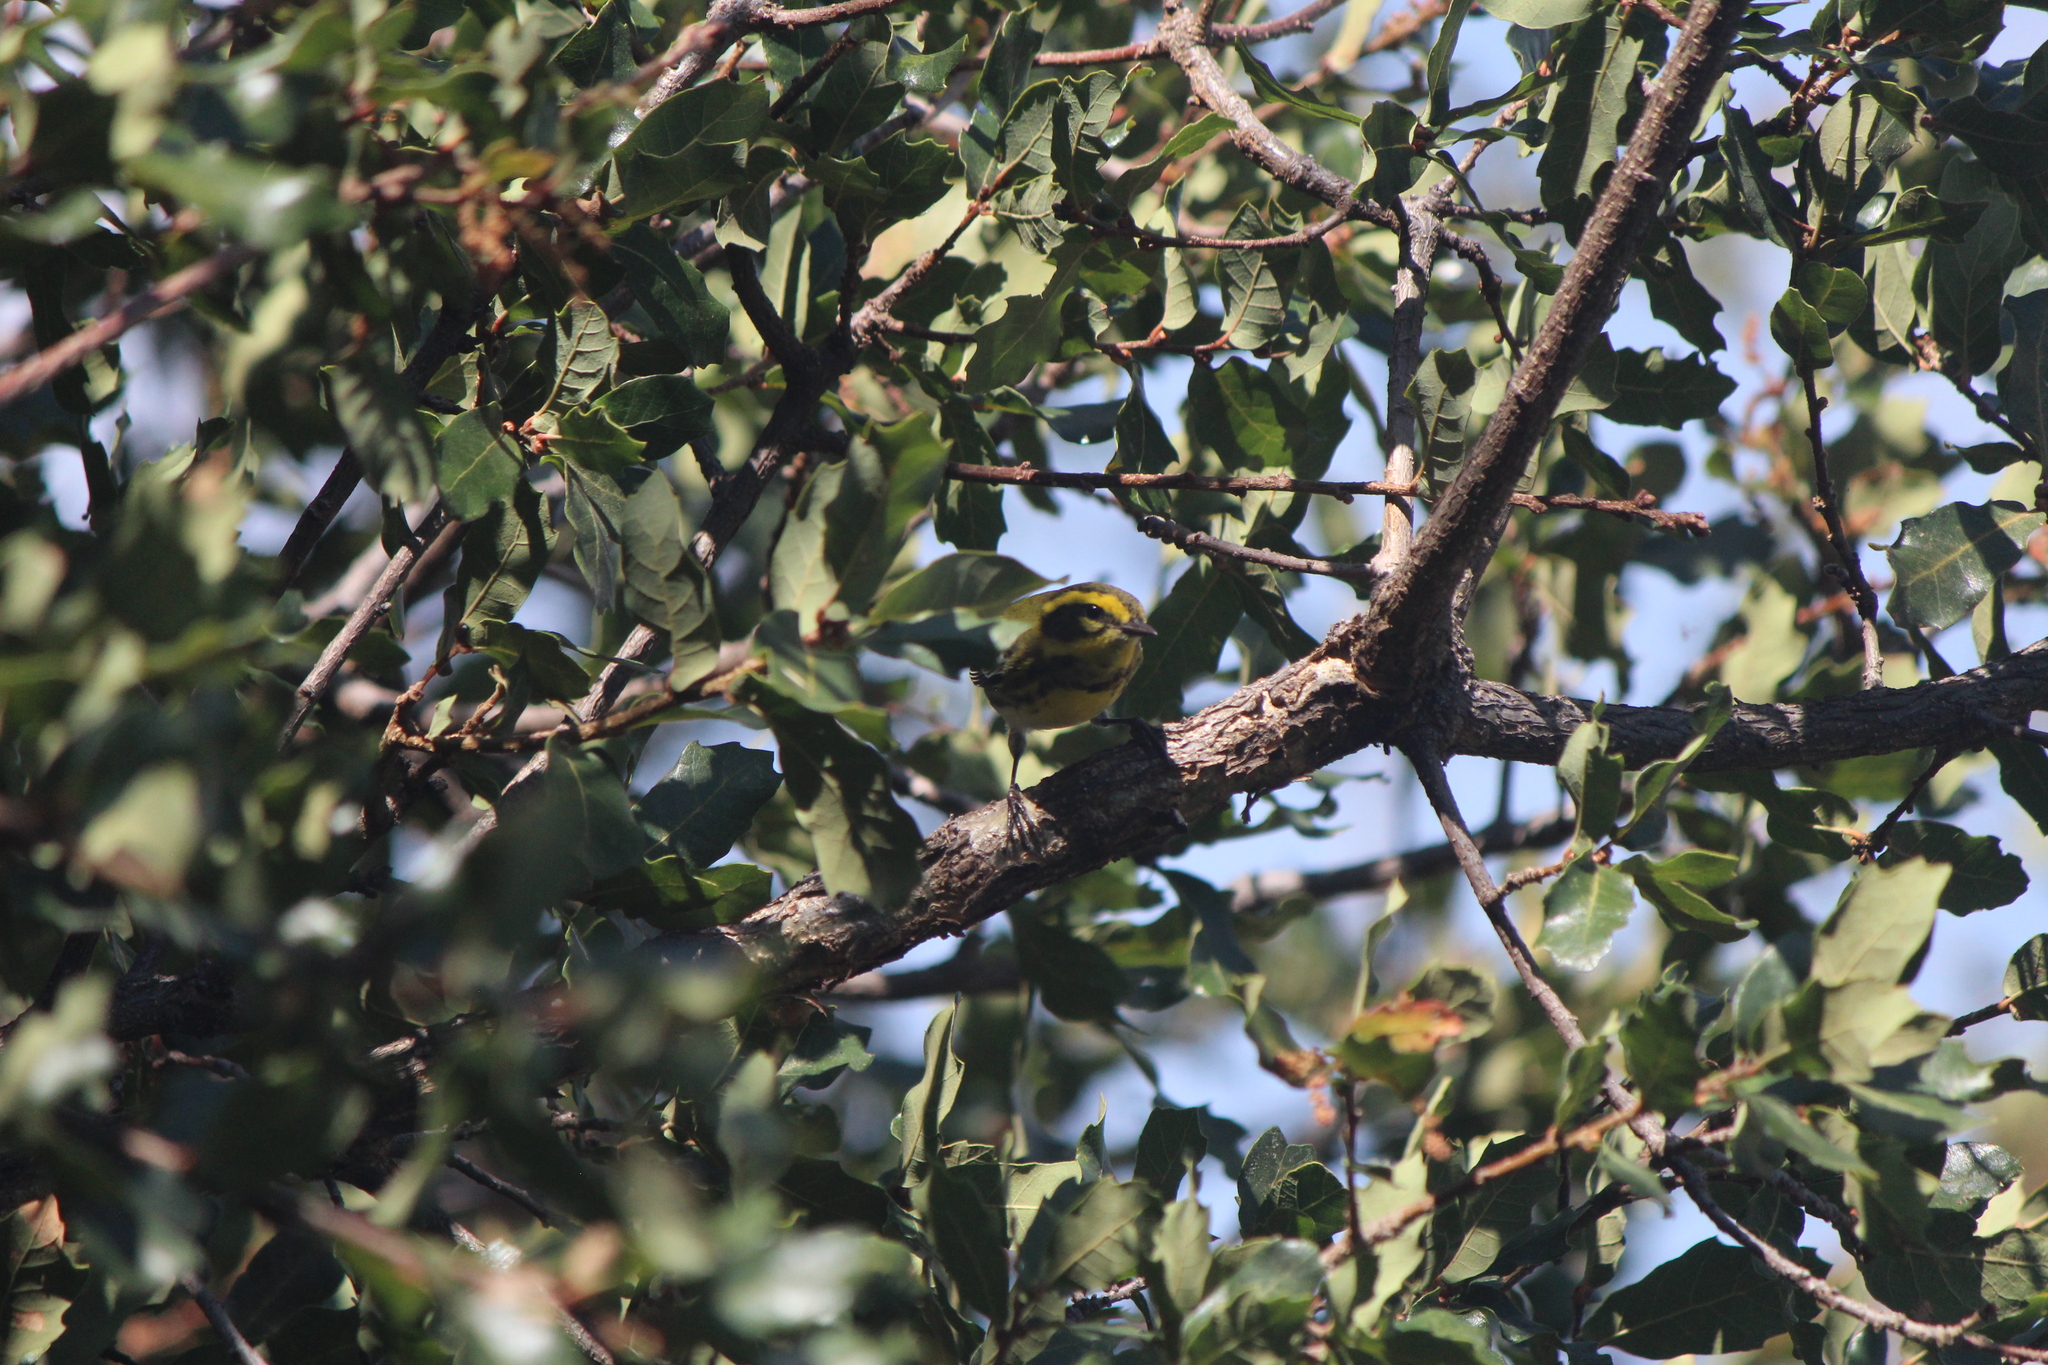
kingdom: Animalia
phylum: Chordata
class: Aves
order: Passeriformes
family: Parulidae
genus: Setophaga
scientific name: Setophaga townsendi
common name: Townsend's warbler
